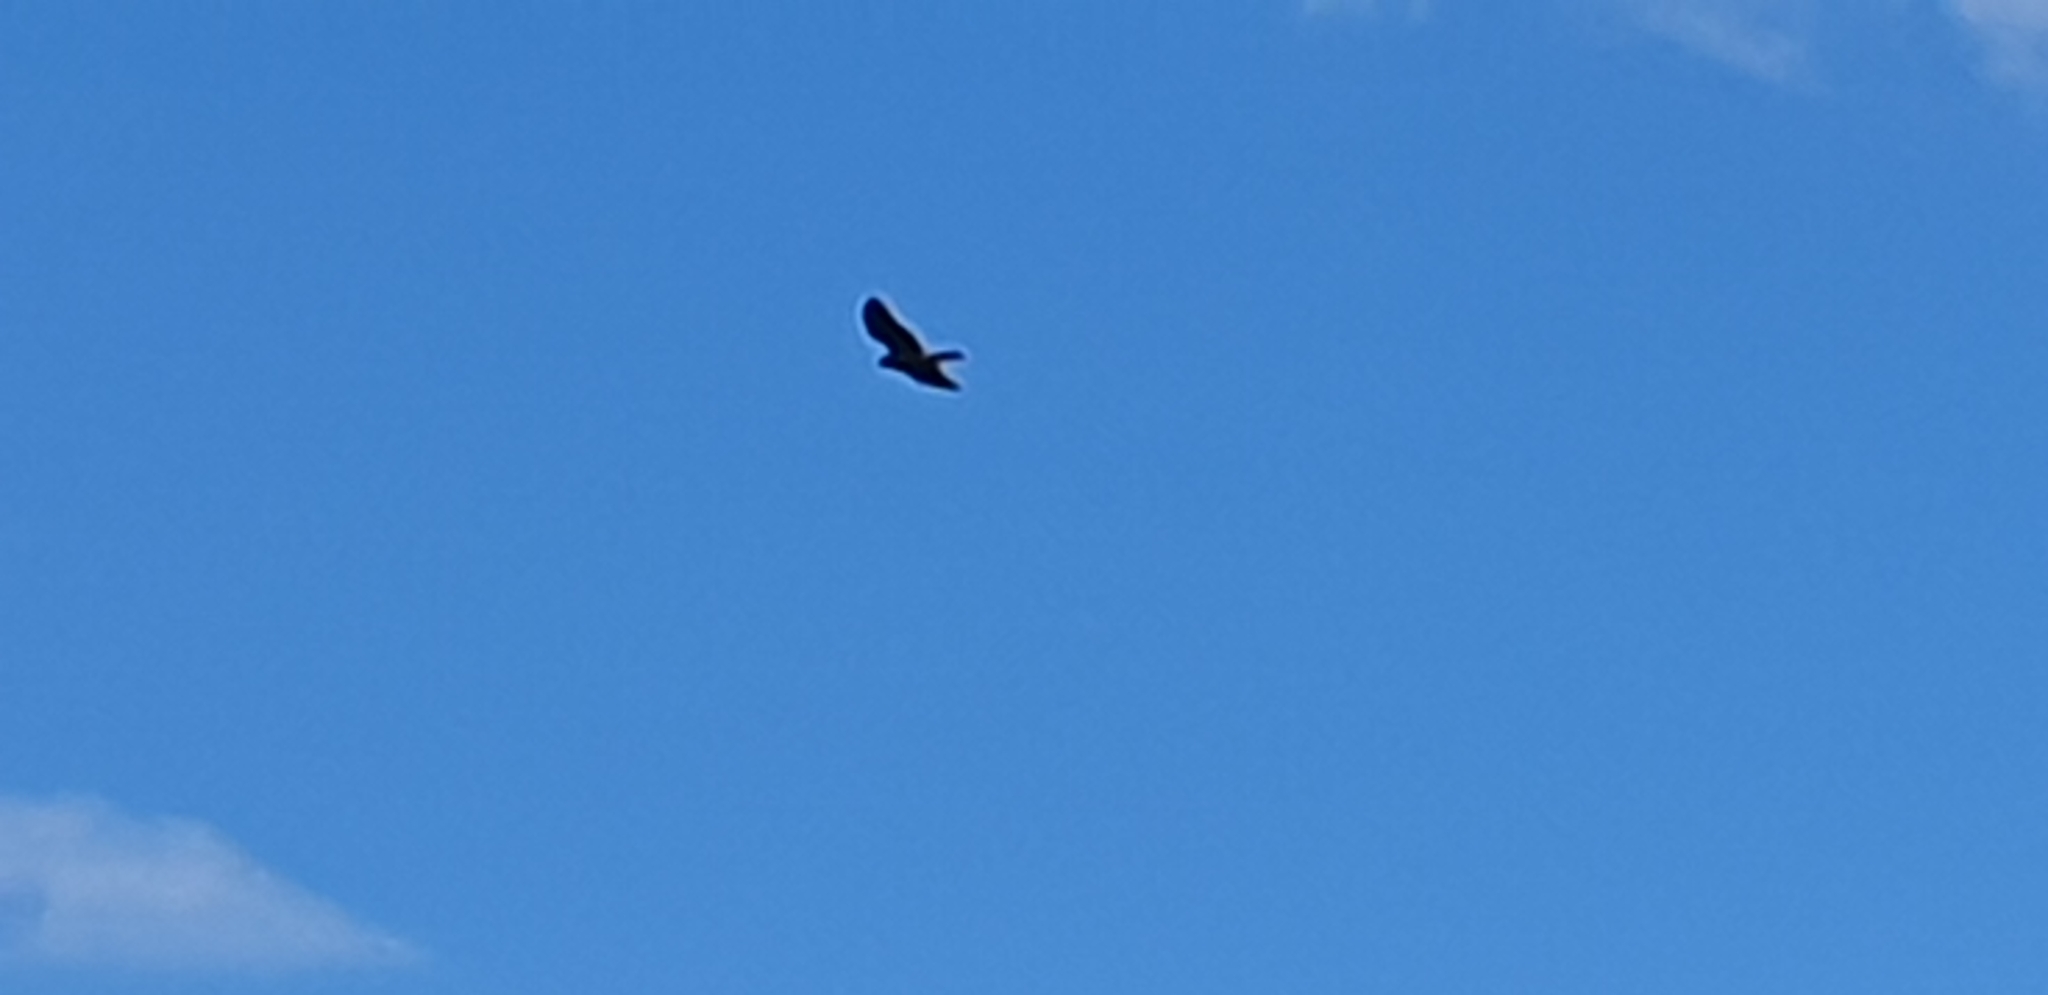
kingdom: Animalia
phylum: Chordata
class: Aves
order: Accipitriformes
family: Accipitridae
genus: Circus
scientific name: Circus approximans
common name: Swamp harrier
